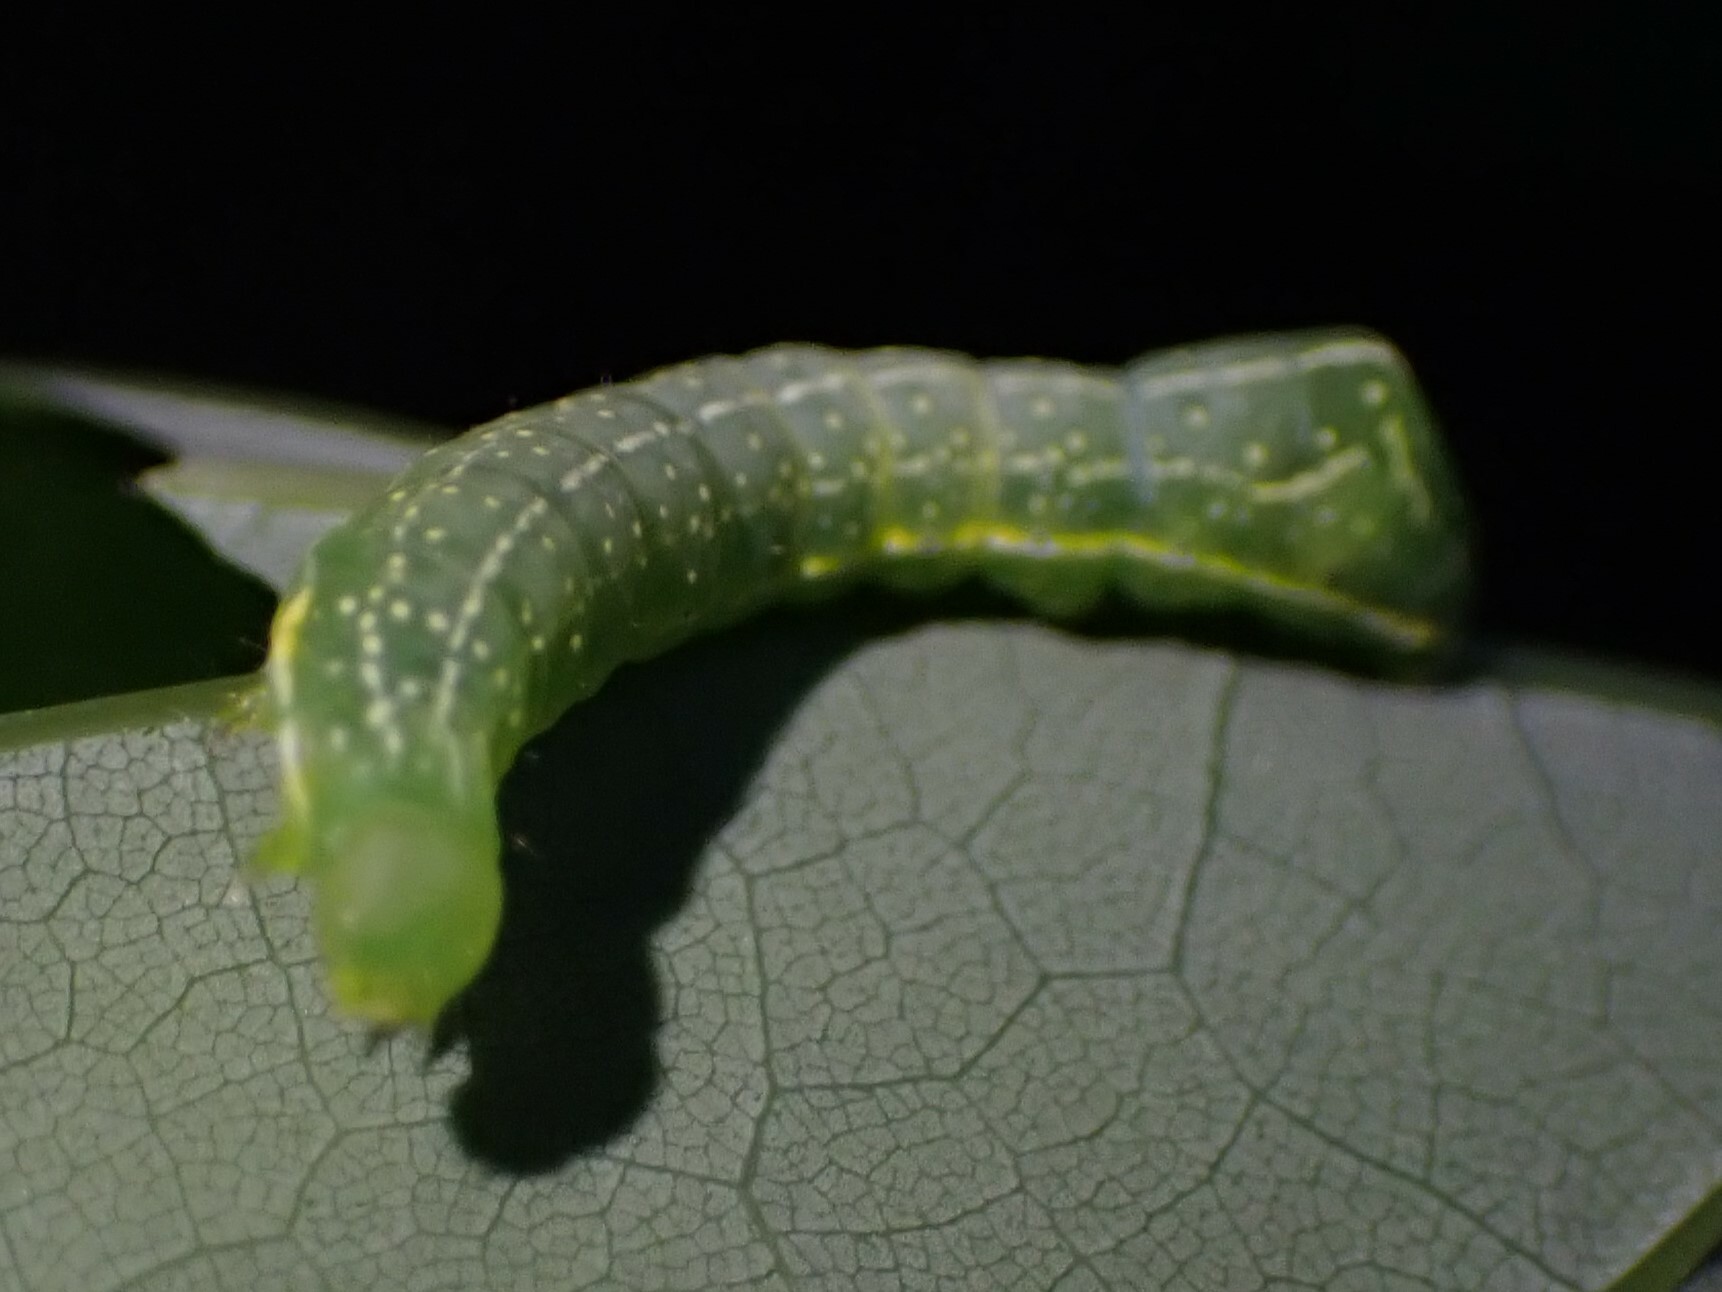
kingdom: Animalia
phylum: Arthropoda
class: Insecta
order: Lepidoptera
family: Noctuidae
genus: Amphipyra
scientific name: Amphipyra pyramidoides
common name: American copper underwing
